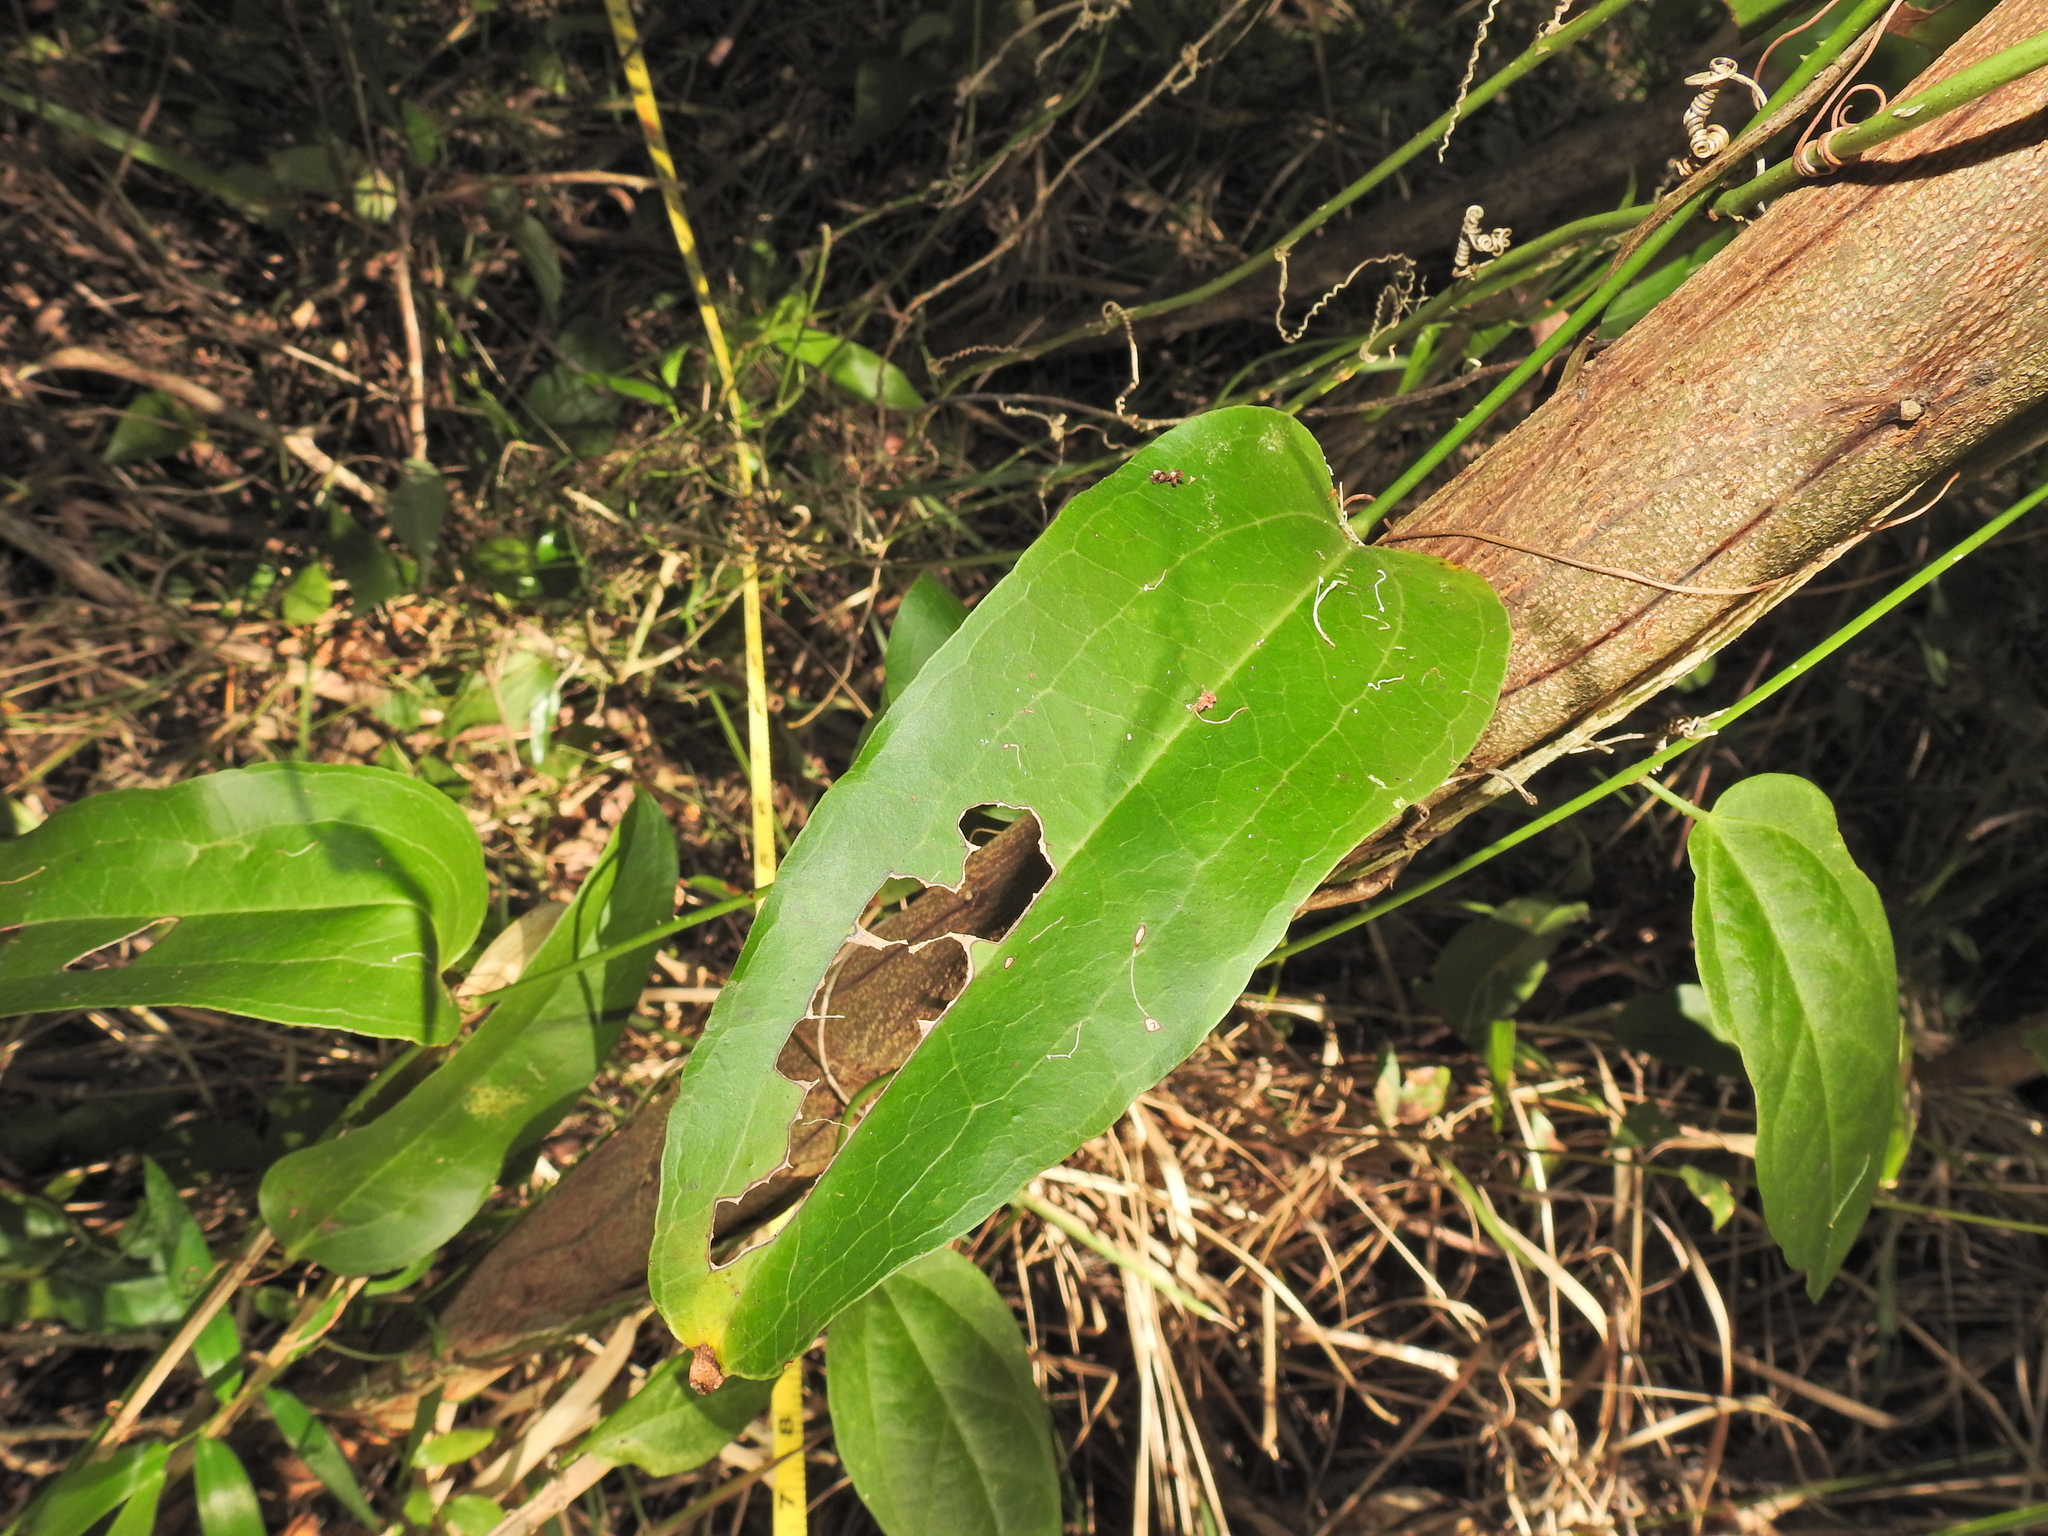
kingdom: Plantae
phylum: Tracheophyta
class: Liliopsida
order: Liliales
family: Smilacaceae
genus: Smilax
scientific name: Smilax australis
